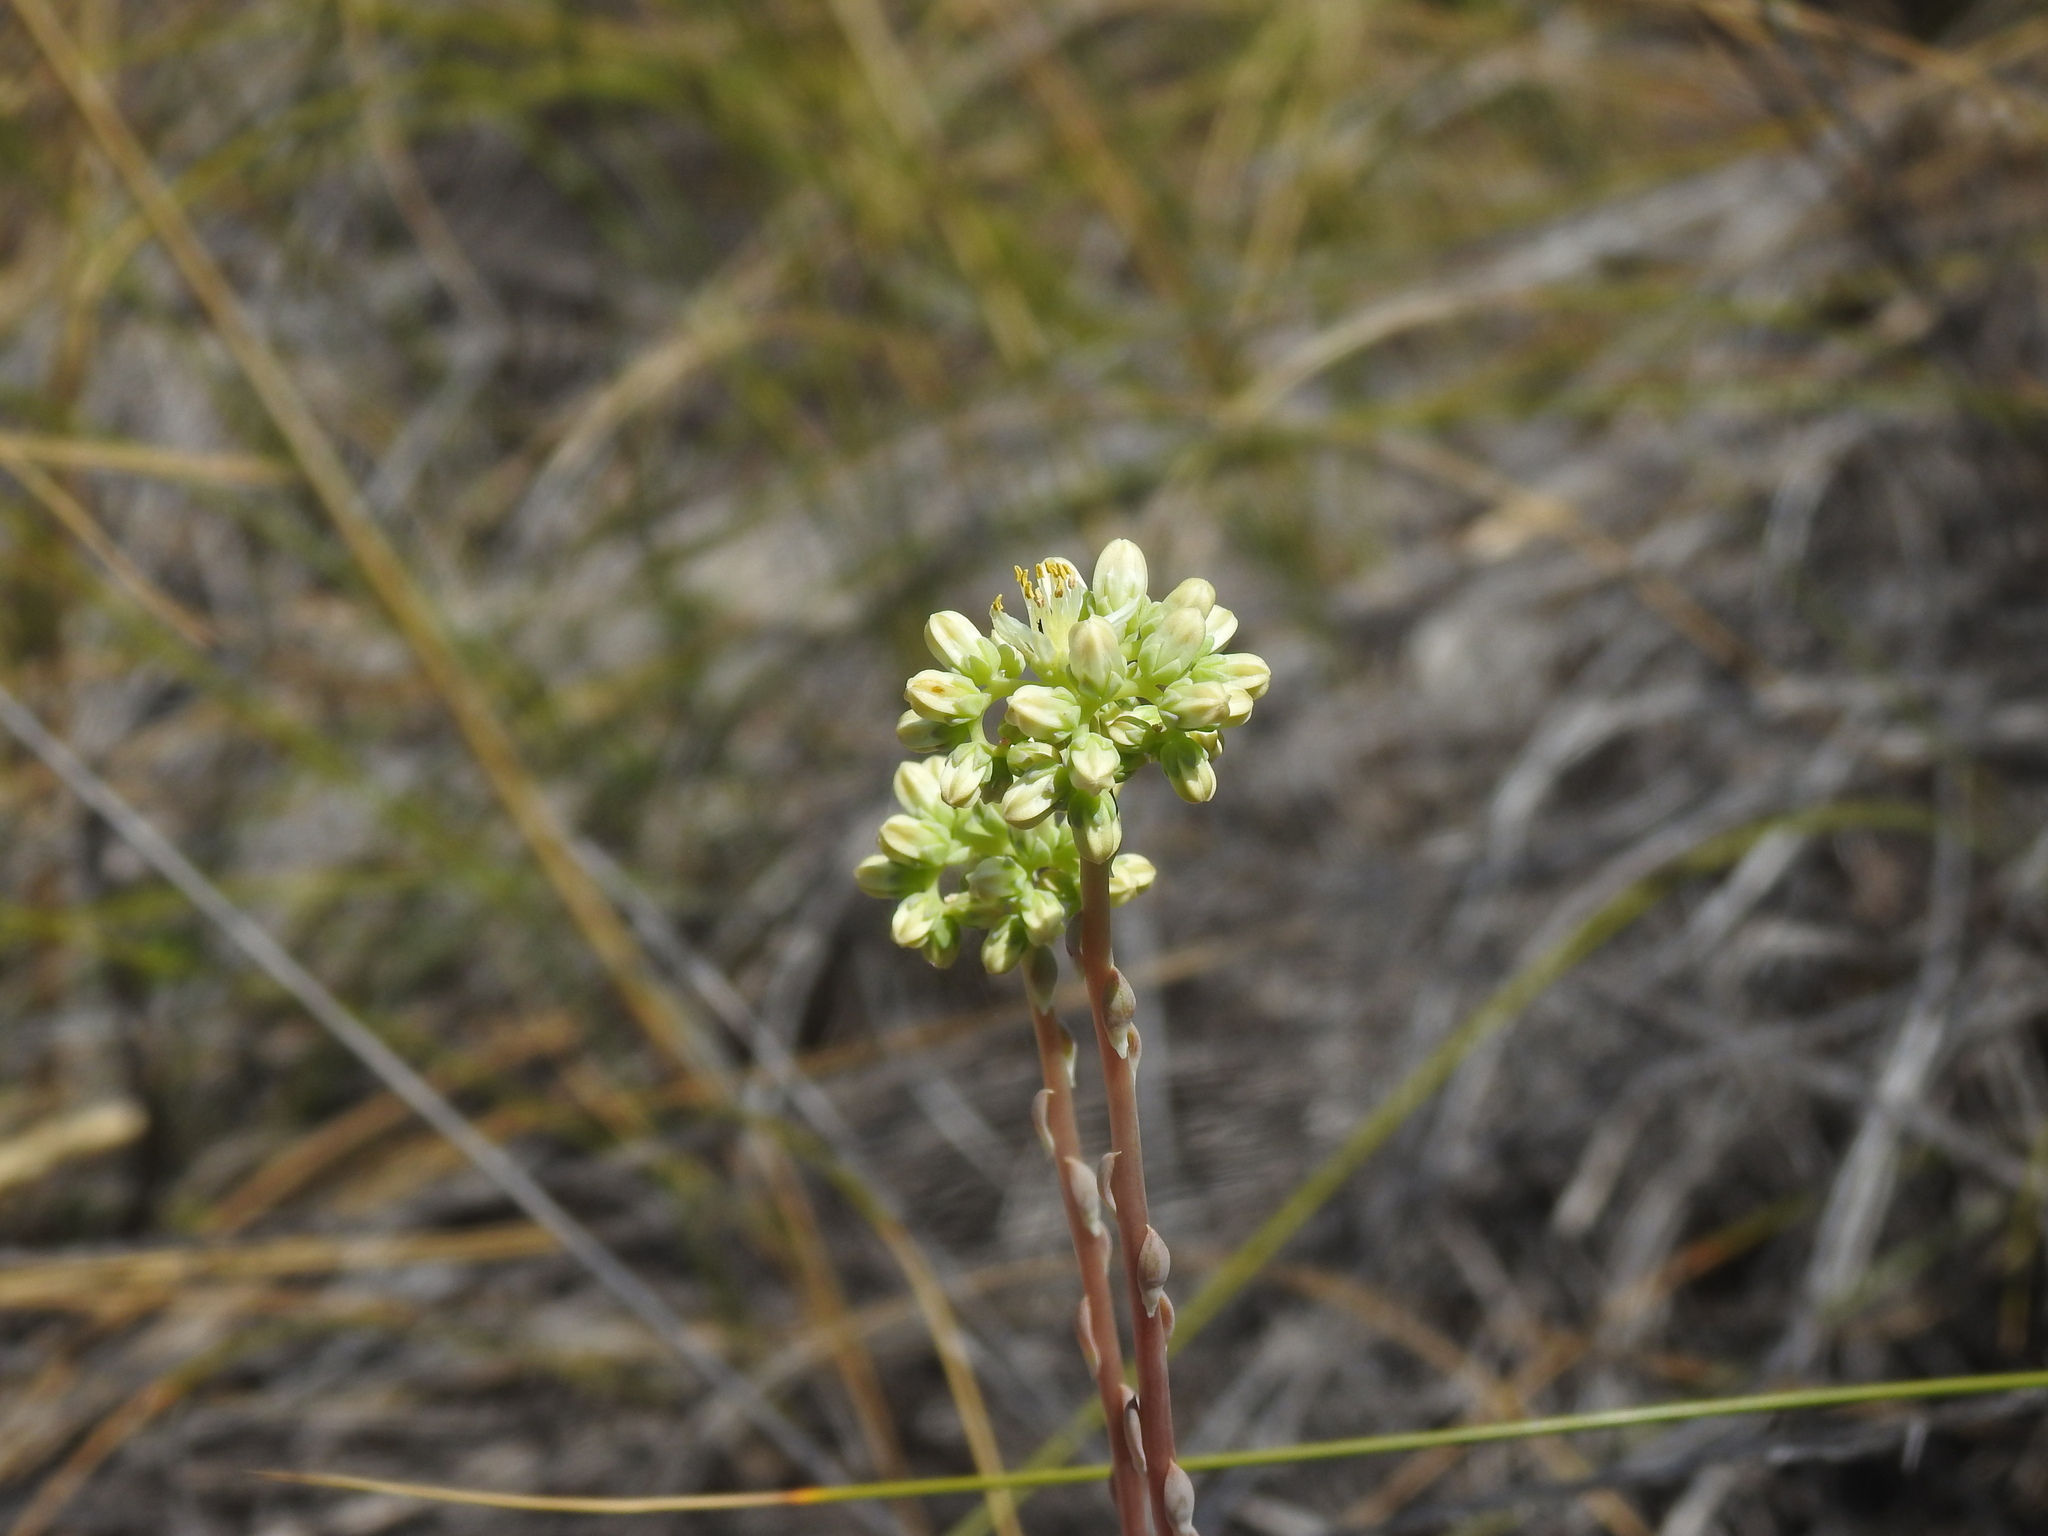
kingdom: Plantae
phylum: Tracheophyta
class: Magnoliopsida
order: Saxifragales
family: Crassulaceae
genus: Petrosedum
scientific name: Petrosedum sediforme
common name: Pale stonecrop
